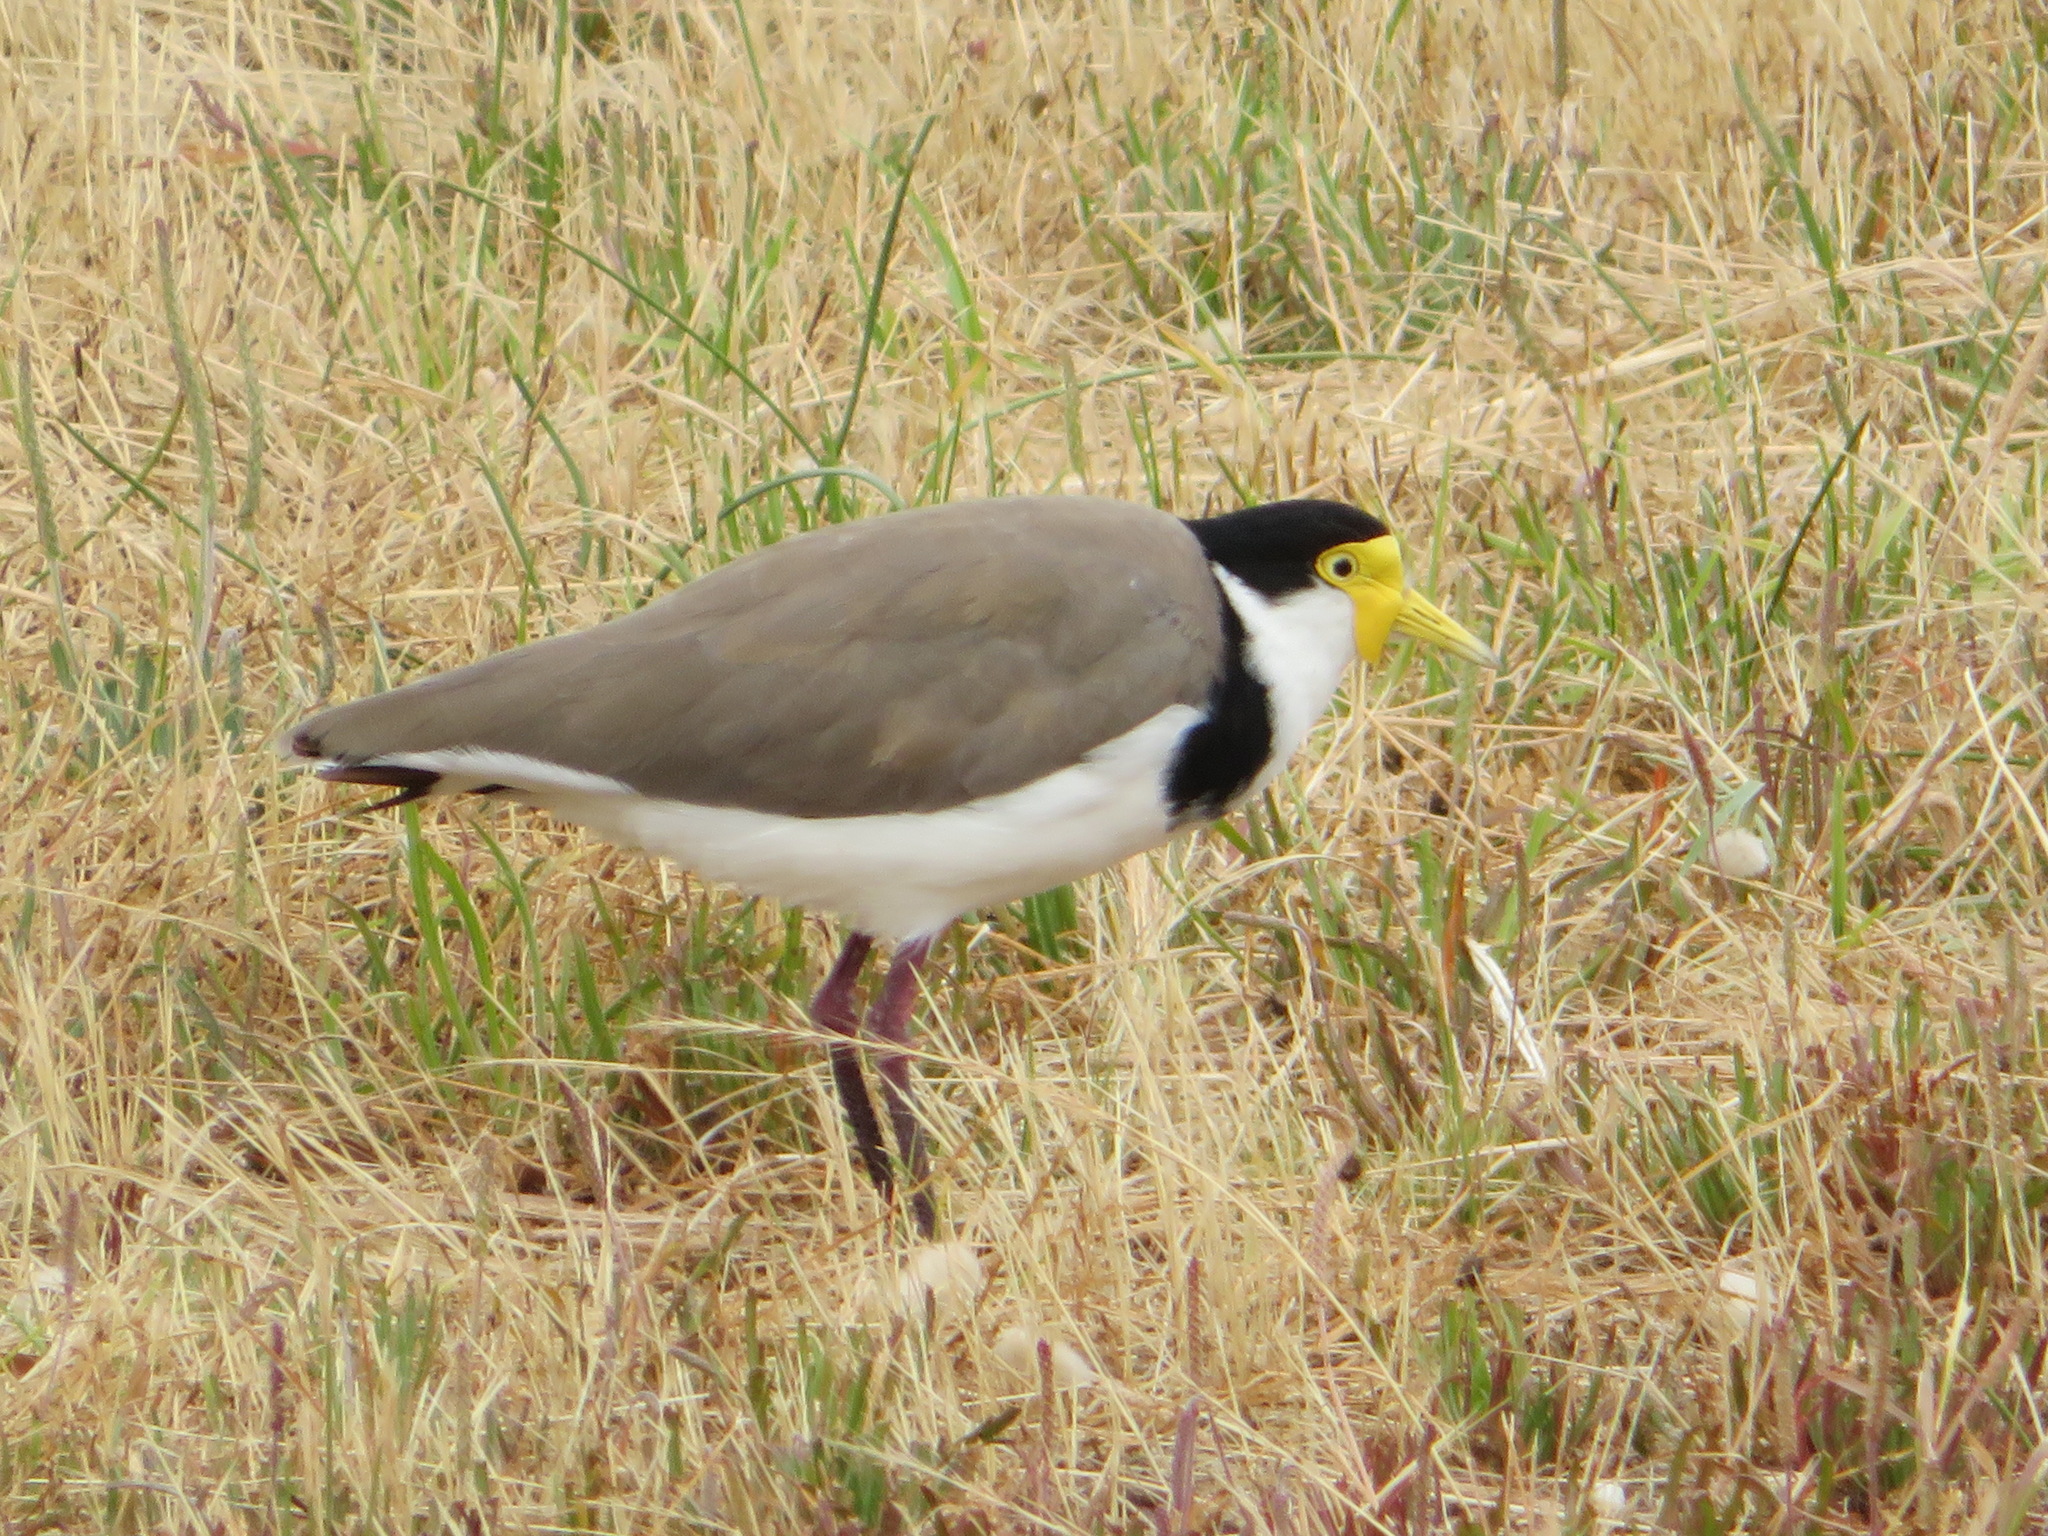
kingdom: Animalia
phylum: Chordata
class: Aves
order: Charadriiformes
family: Charadriidae
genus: Vanellus
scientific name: Vanellus miles
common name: Masked lapwing
